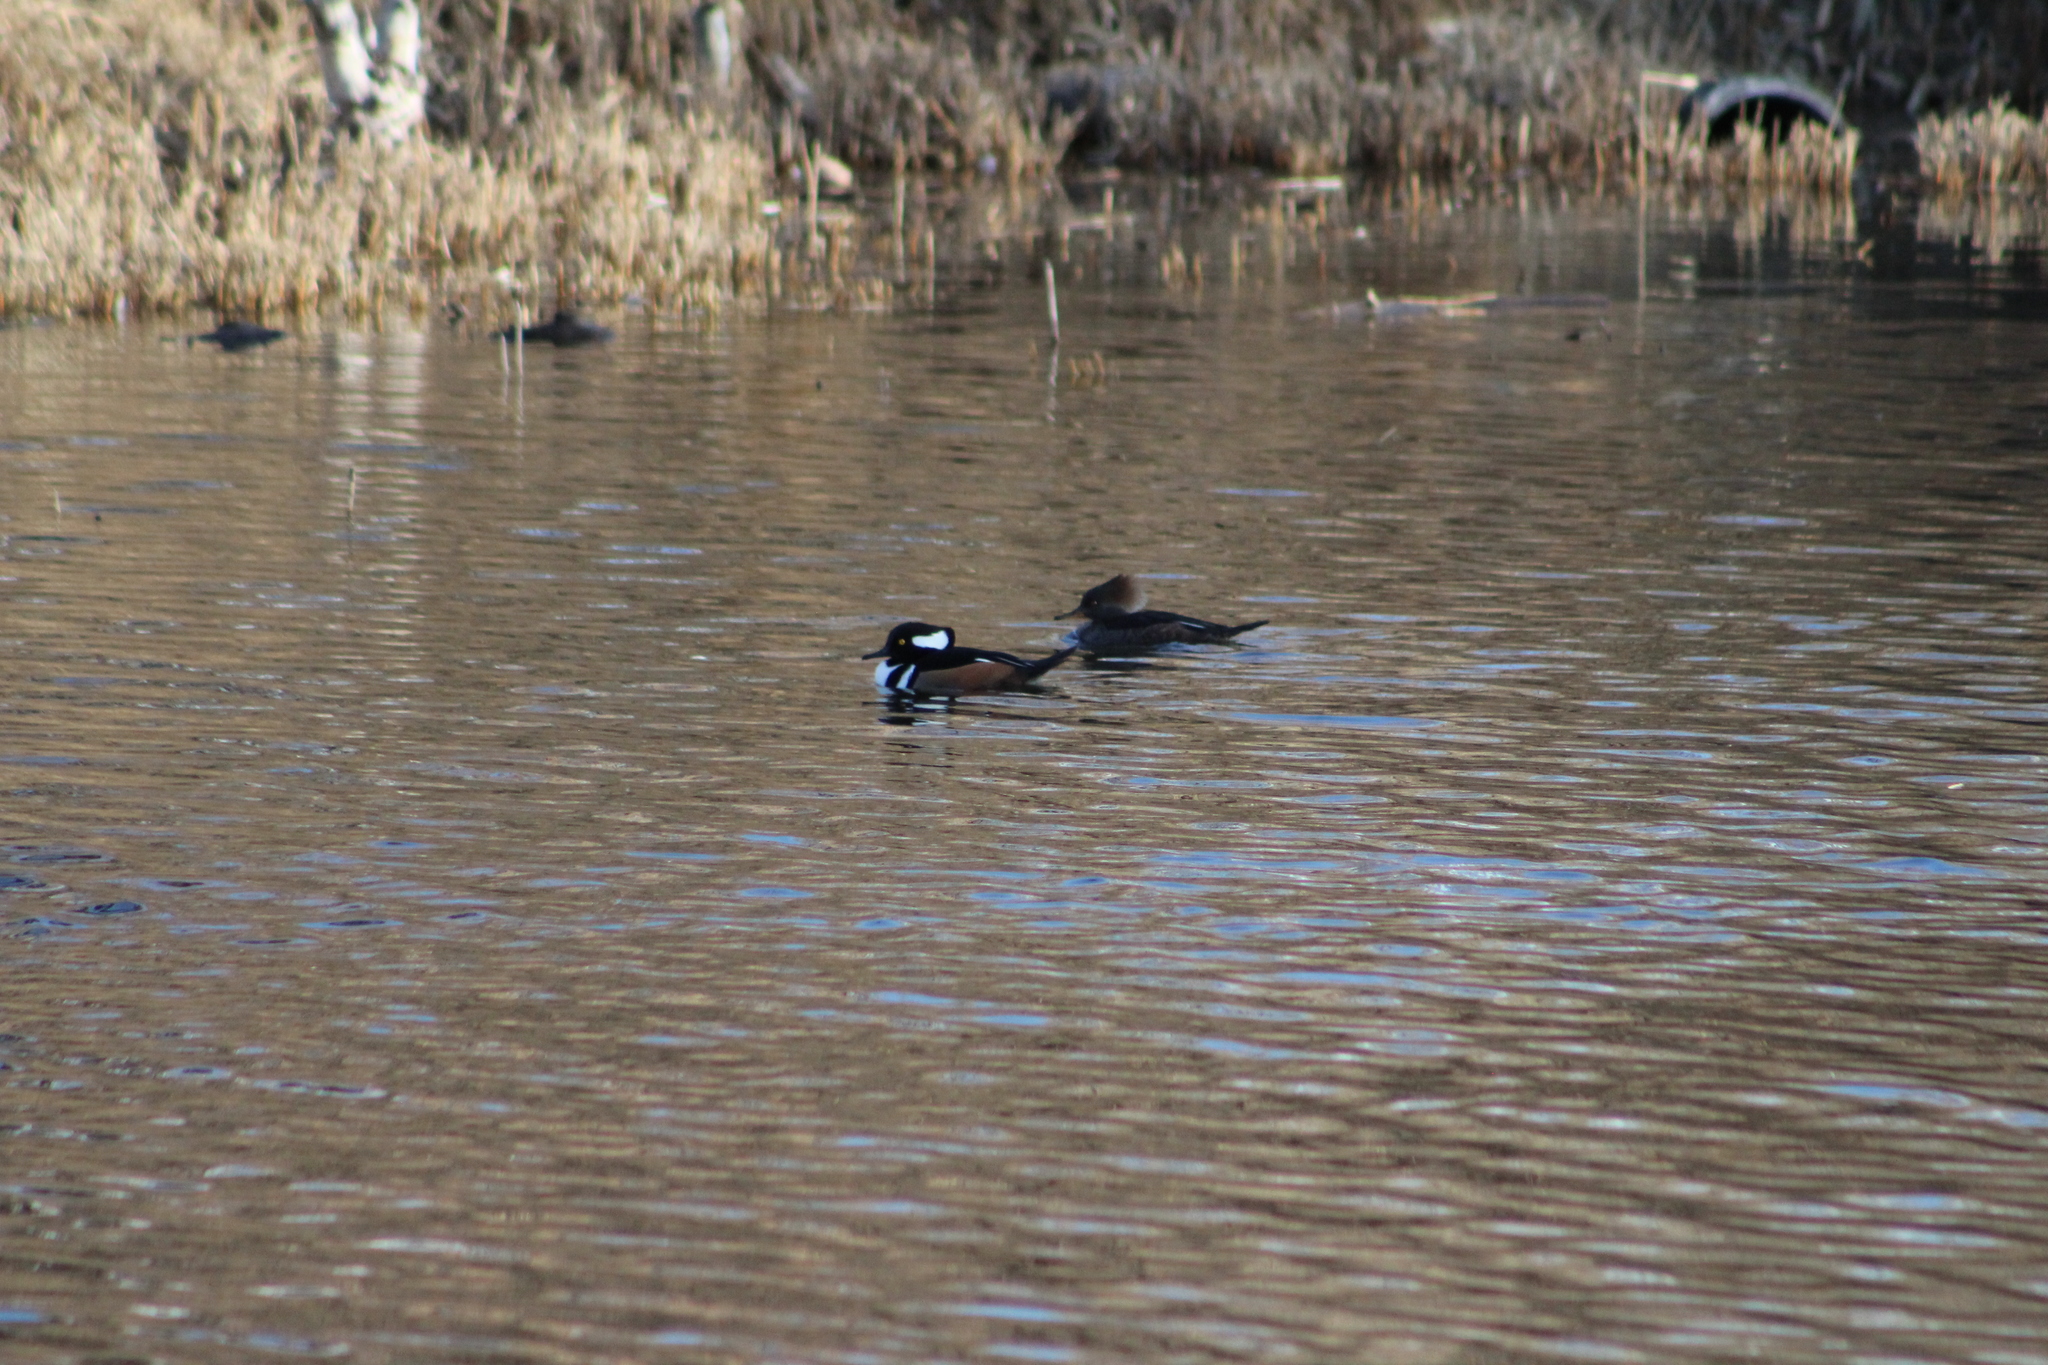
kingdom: Animalia
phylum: Chordata
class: Aves
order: Anseriformes
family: Anatidae
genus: Lophodytes
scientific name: Lophodytes cucullatus
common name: Hooded merganser
